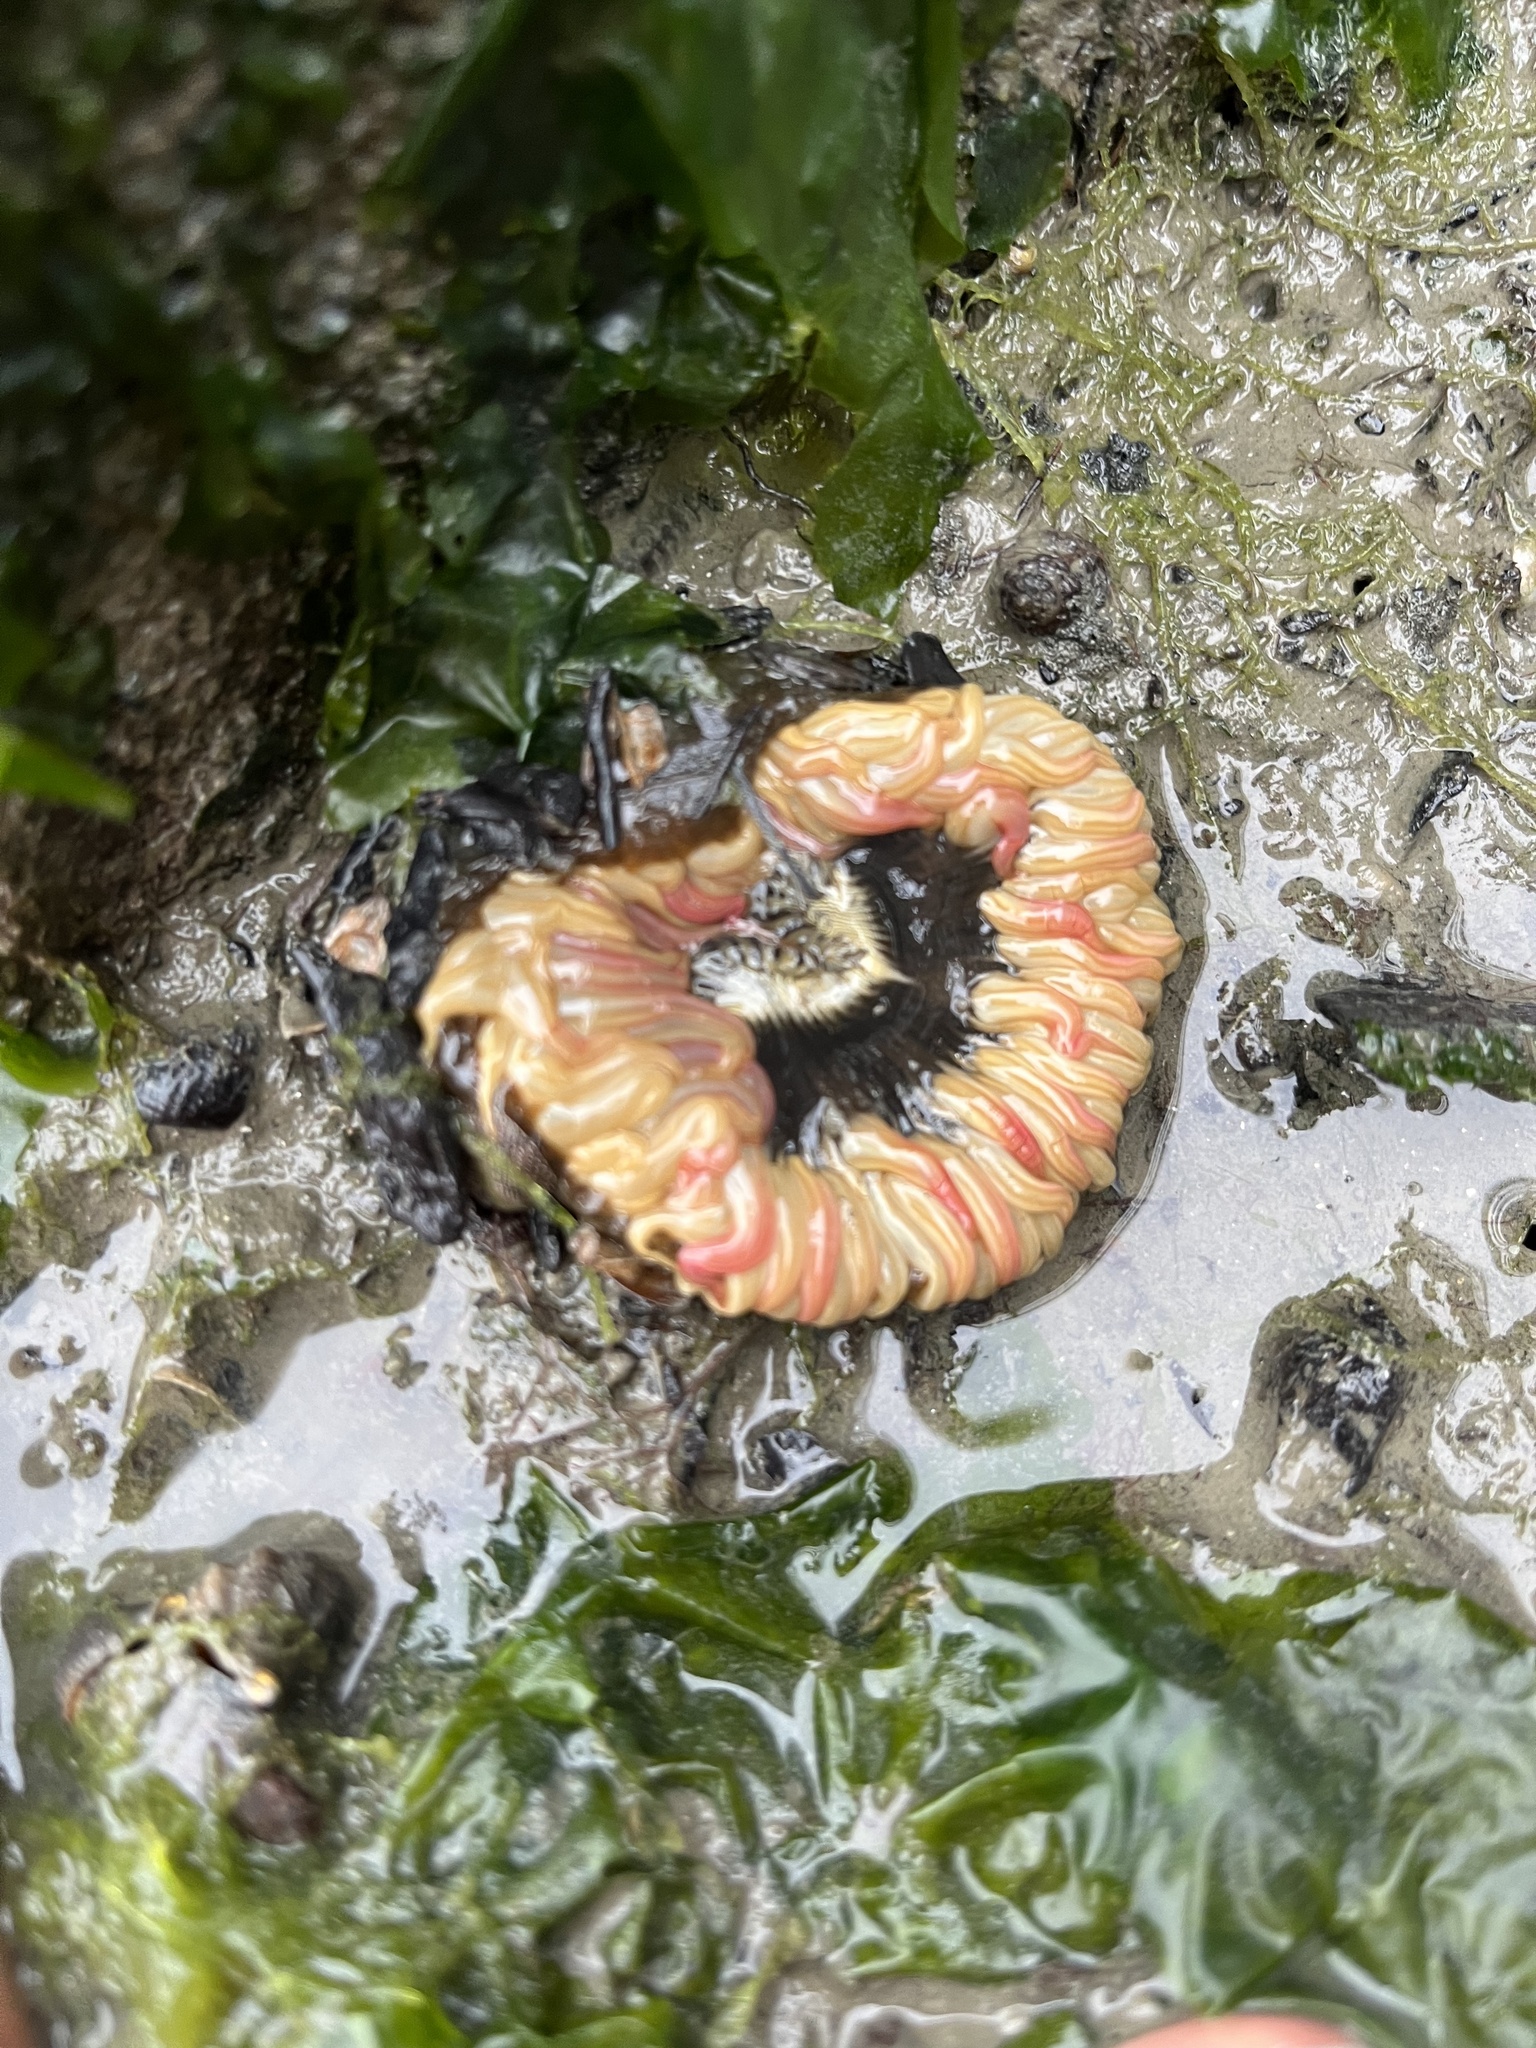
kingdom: Animalia
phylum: Cnidaria
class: Anthozoa
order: Actiniaria
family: Actiniidae
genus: Anthopleura
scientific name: Anthopleura artemisia
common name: Buried sea anemone
